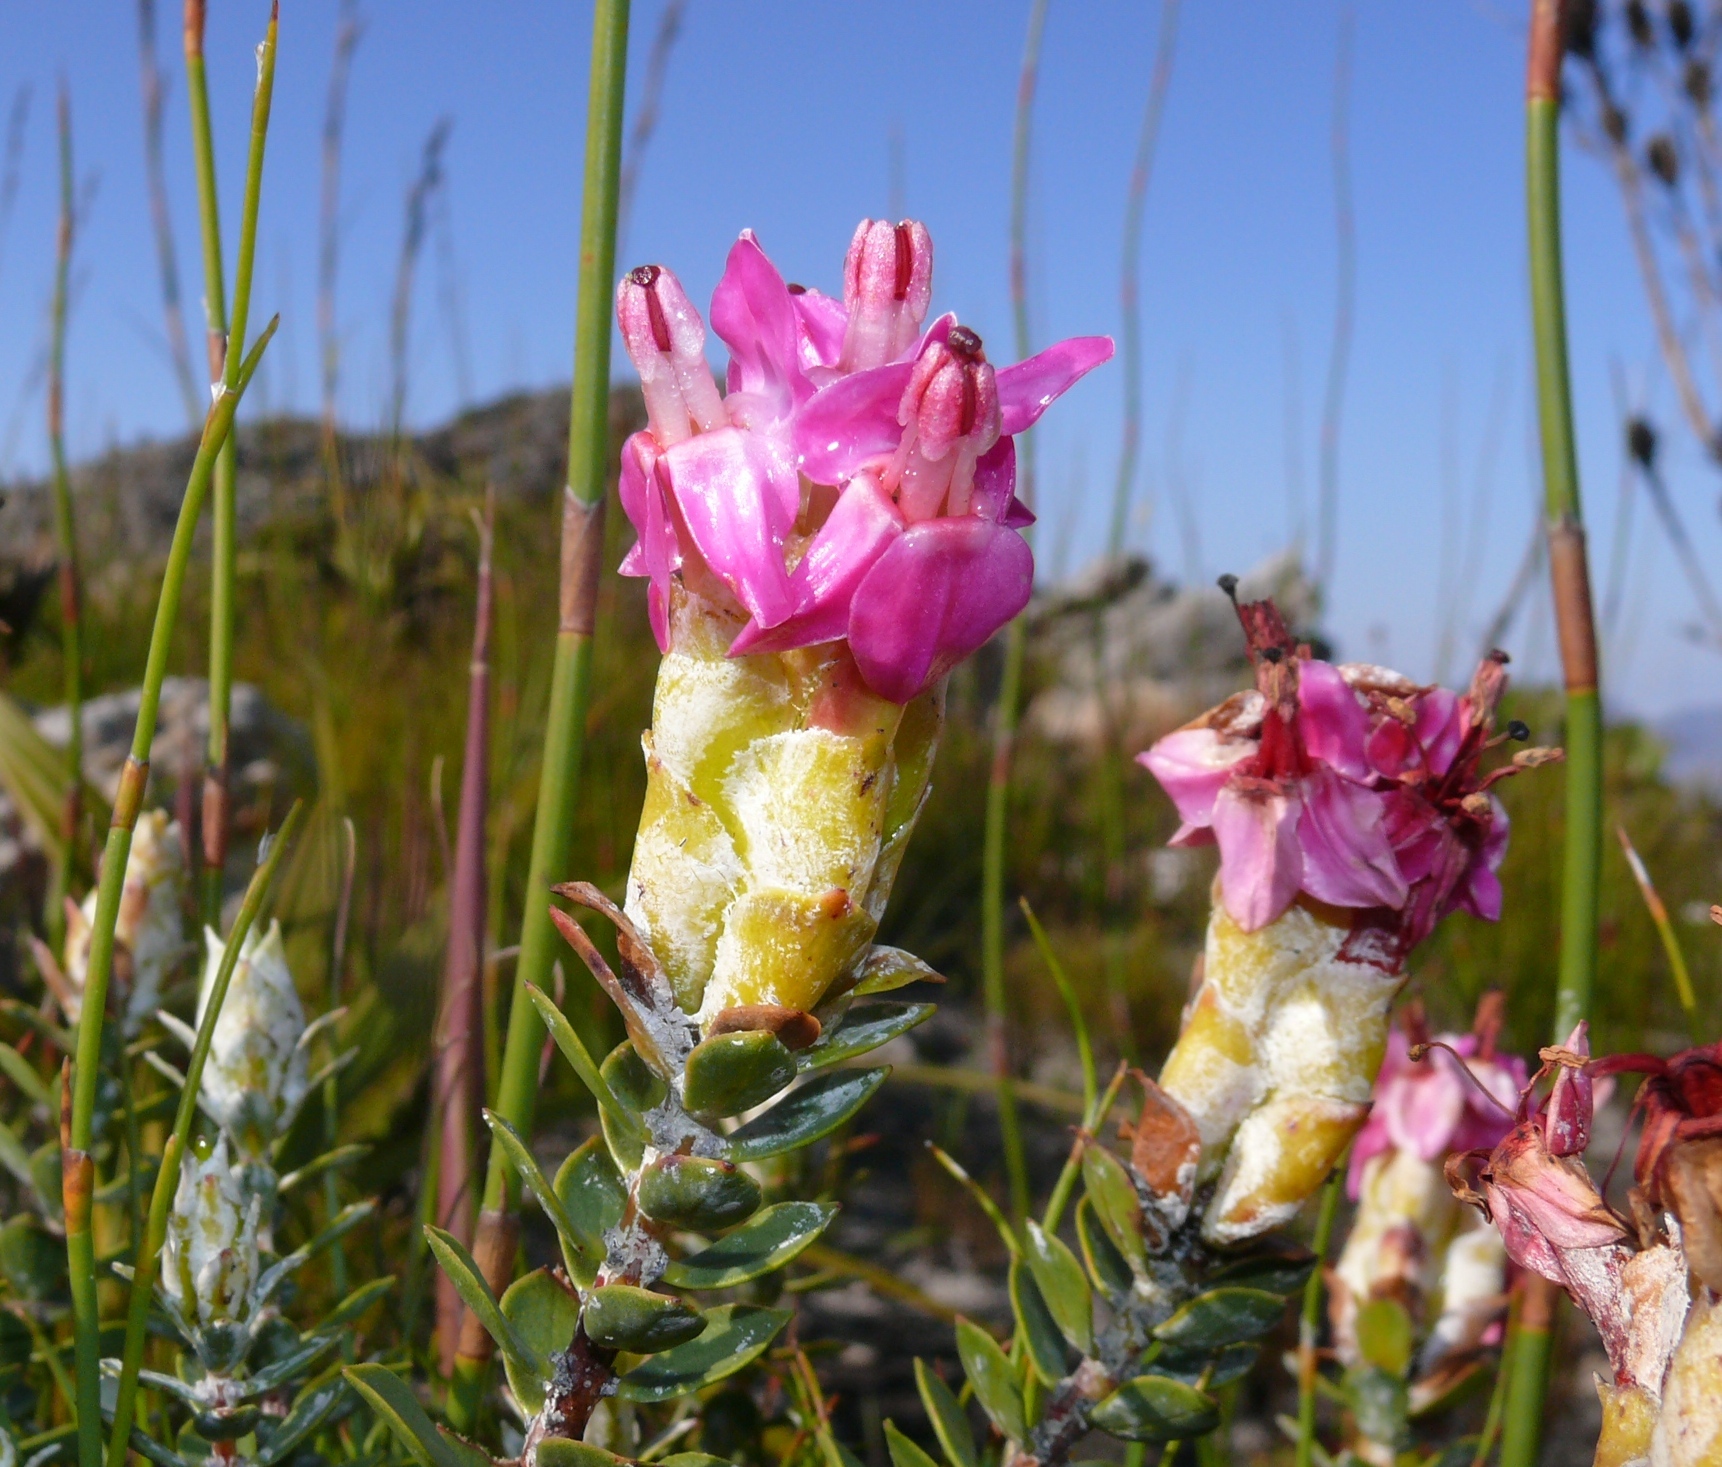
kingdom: Plantae
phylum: Tracheophyta
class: Magnoliopsida
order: Myrtales
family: Penaeaceae
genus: Saltera
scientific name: Saltera sarcocolla
